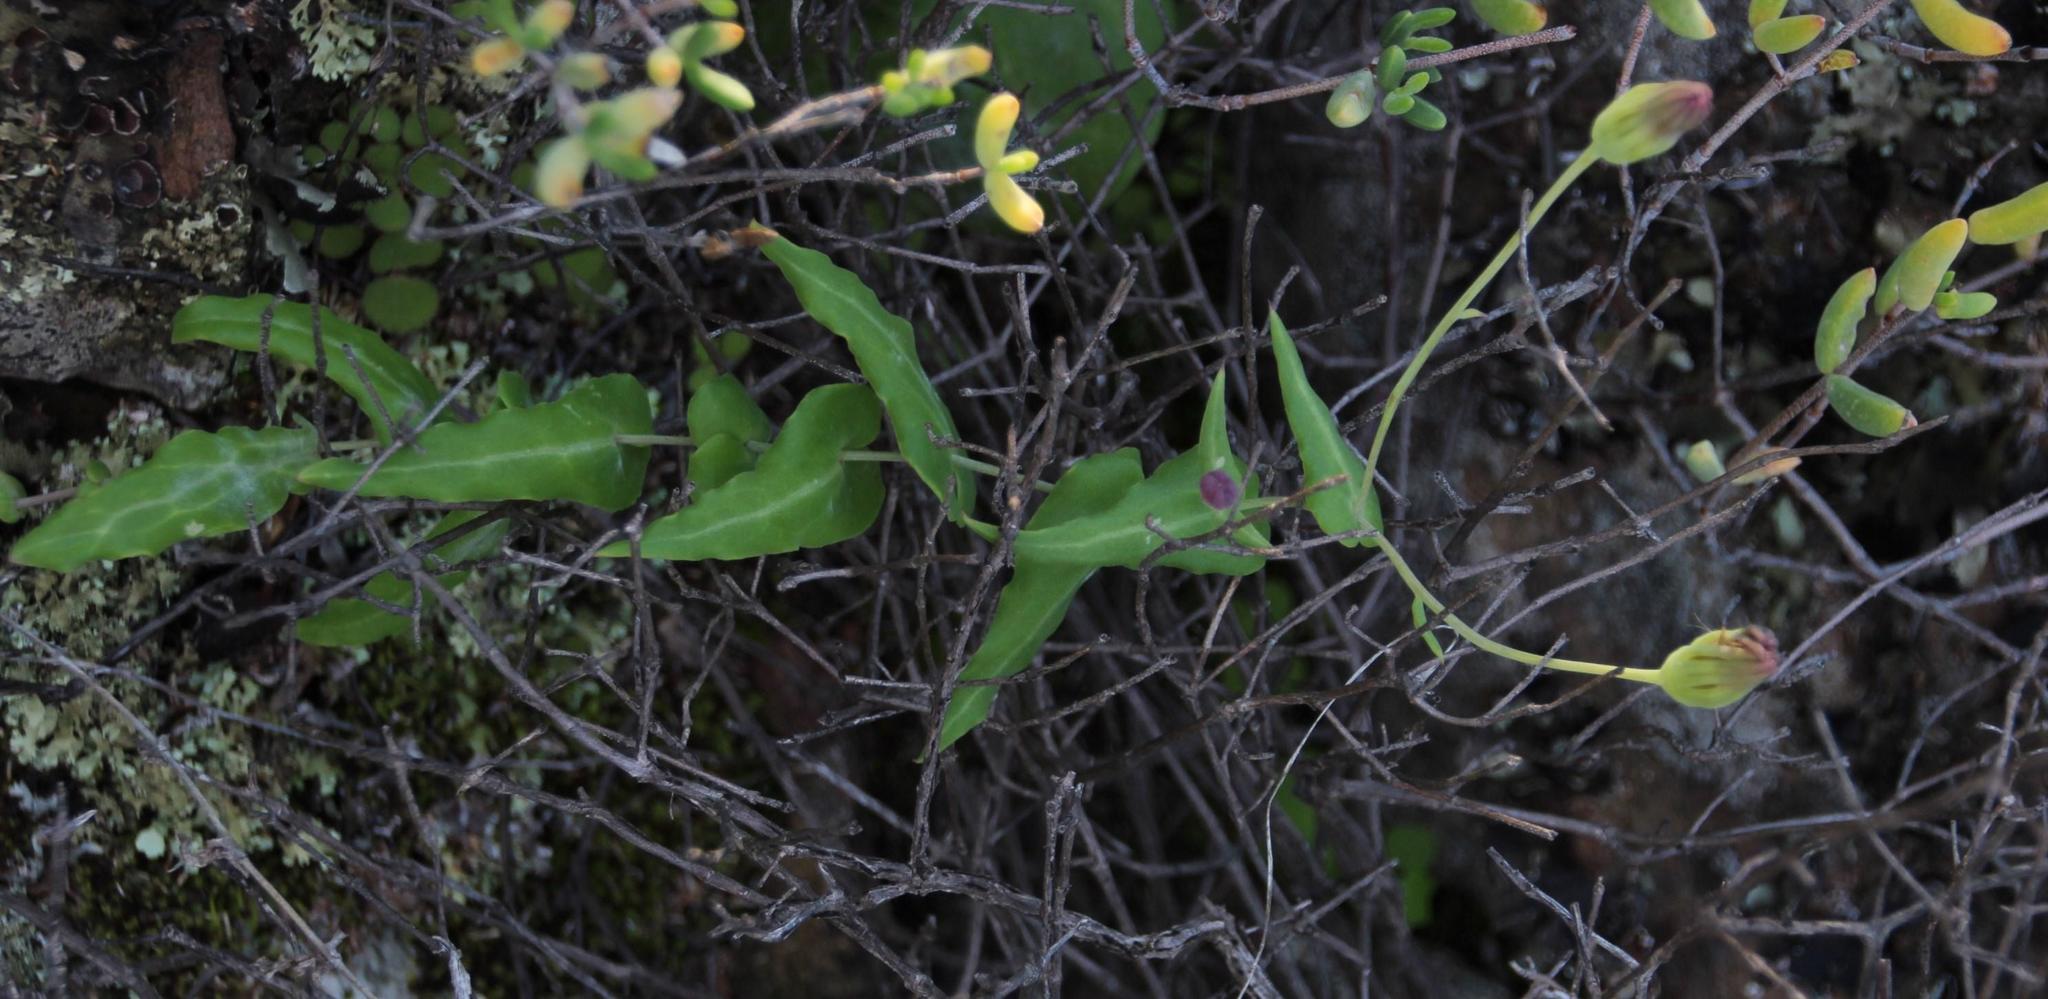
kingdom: Plantae
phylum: Tracheophyta
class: Magnoliopsida
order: Asterales
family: Asteraceae
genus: Othonna
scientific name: Othonna undulosa
